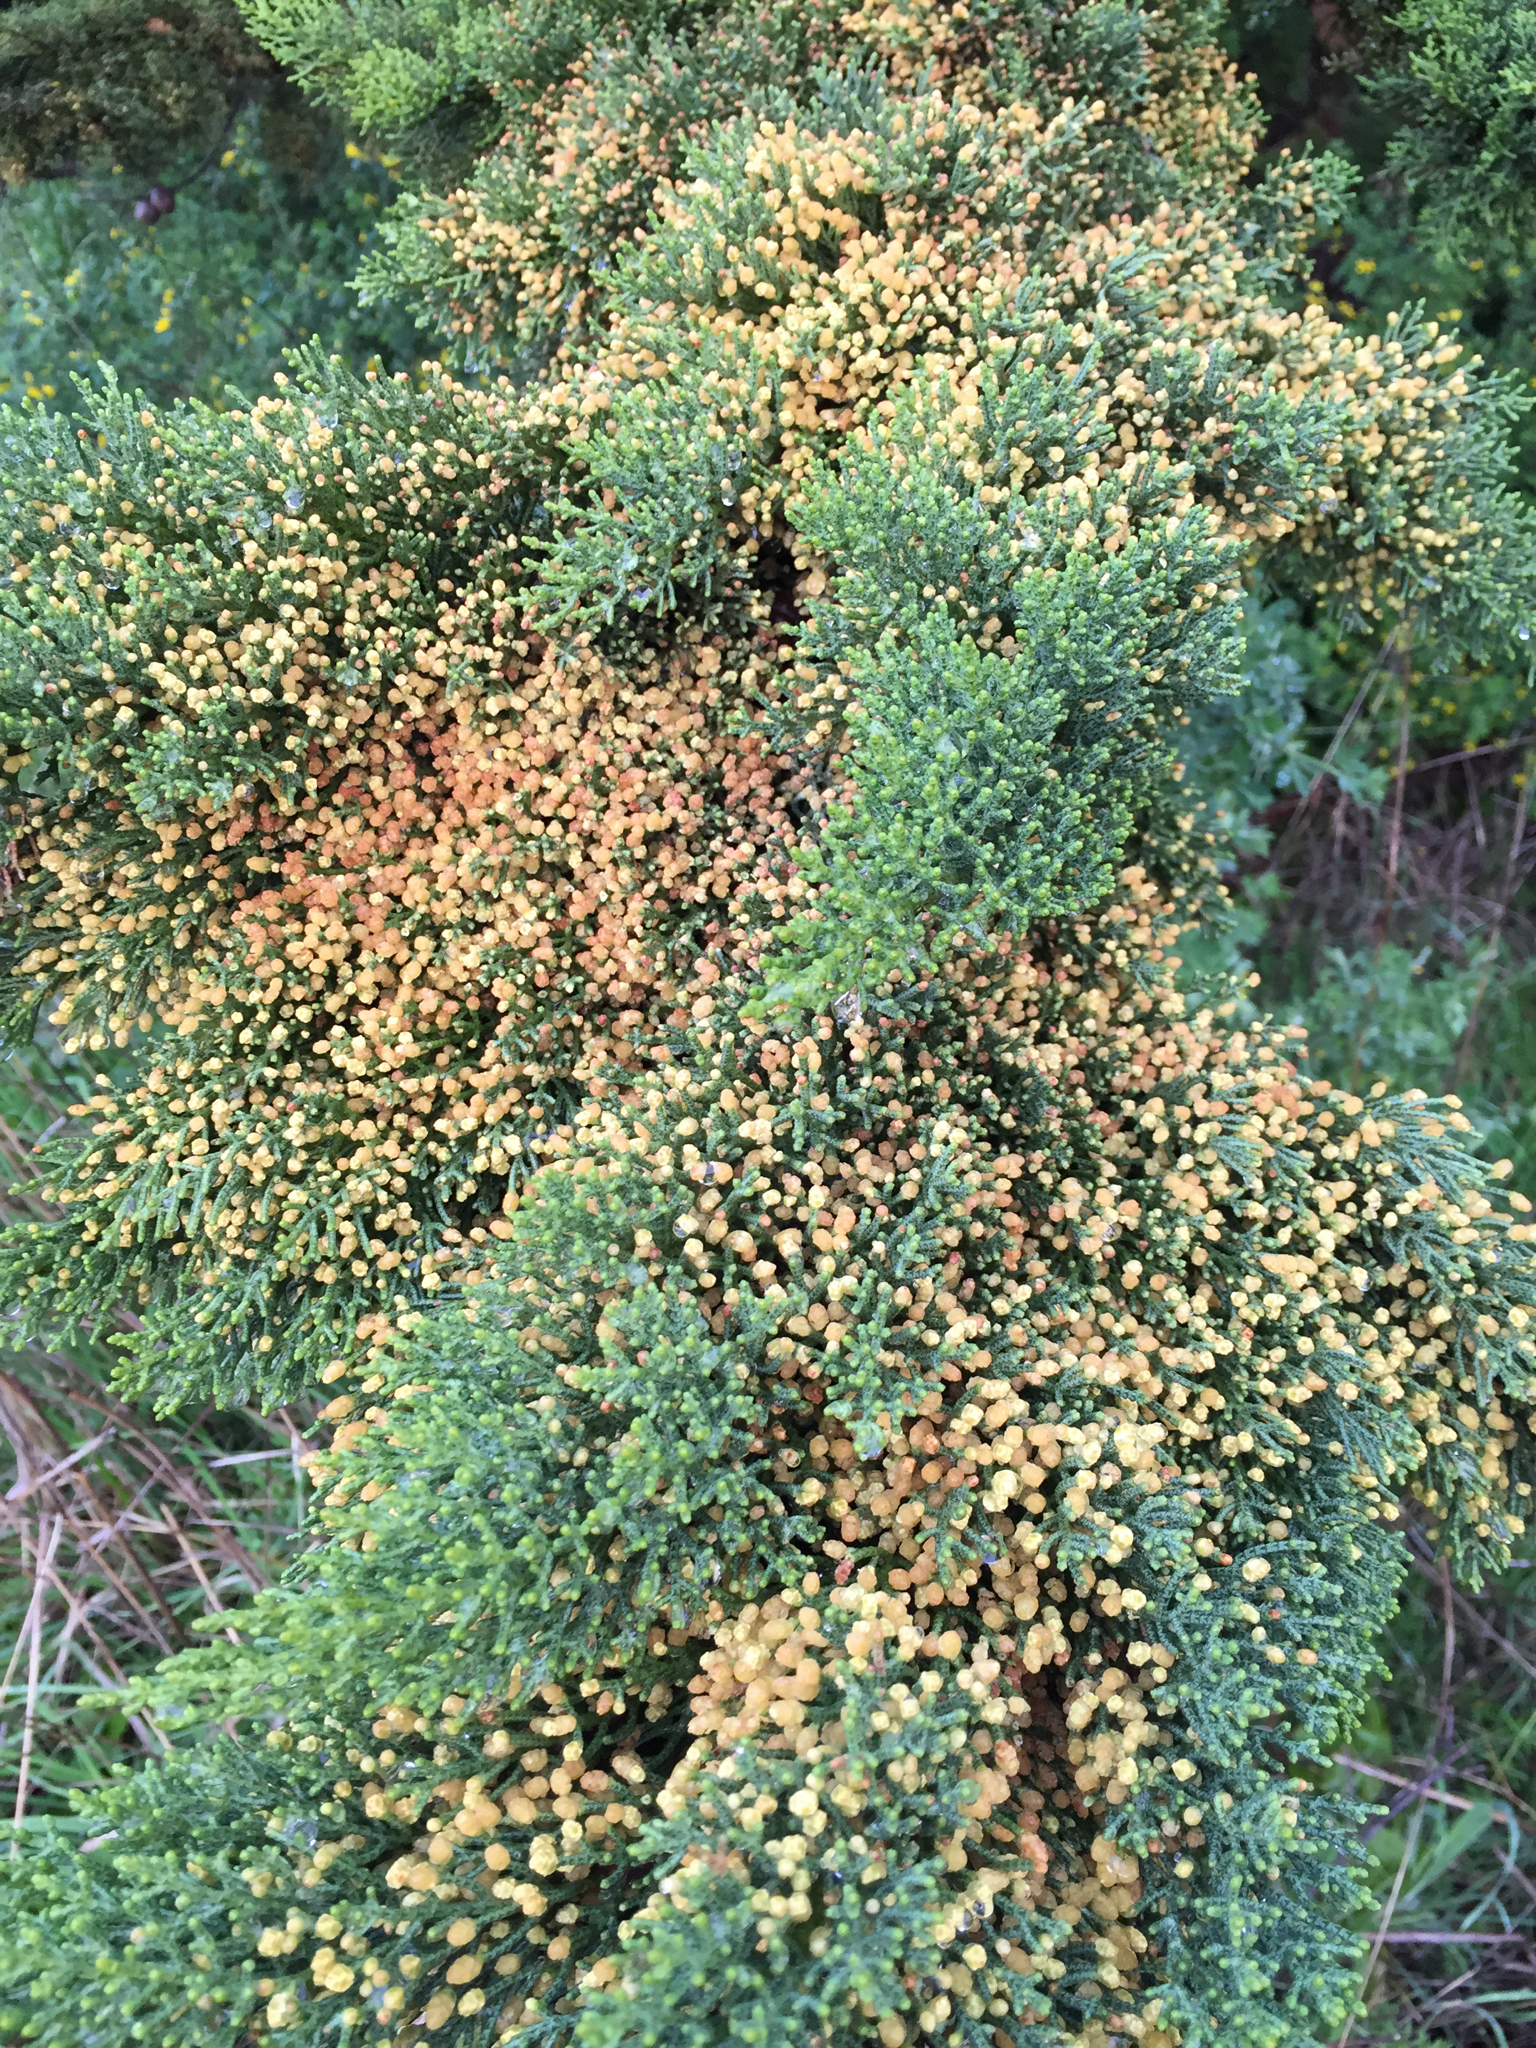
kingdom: Plantae
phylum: Tracheophyta
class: Pinopsida
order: Pinales
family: Cupressaceae
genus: Cupressus
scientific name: Cupressus macrocarpa
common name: Monterey cypress
